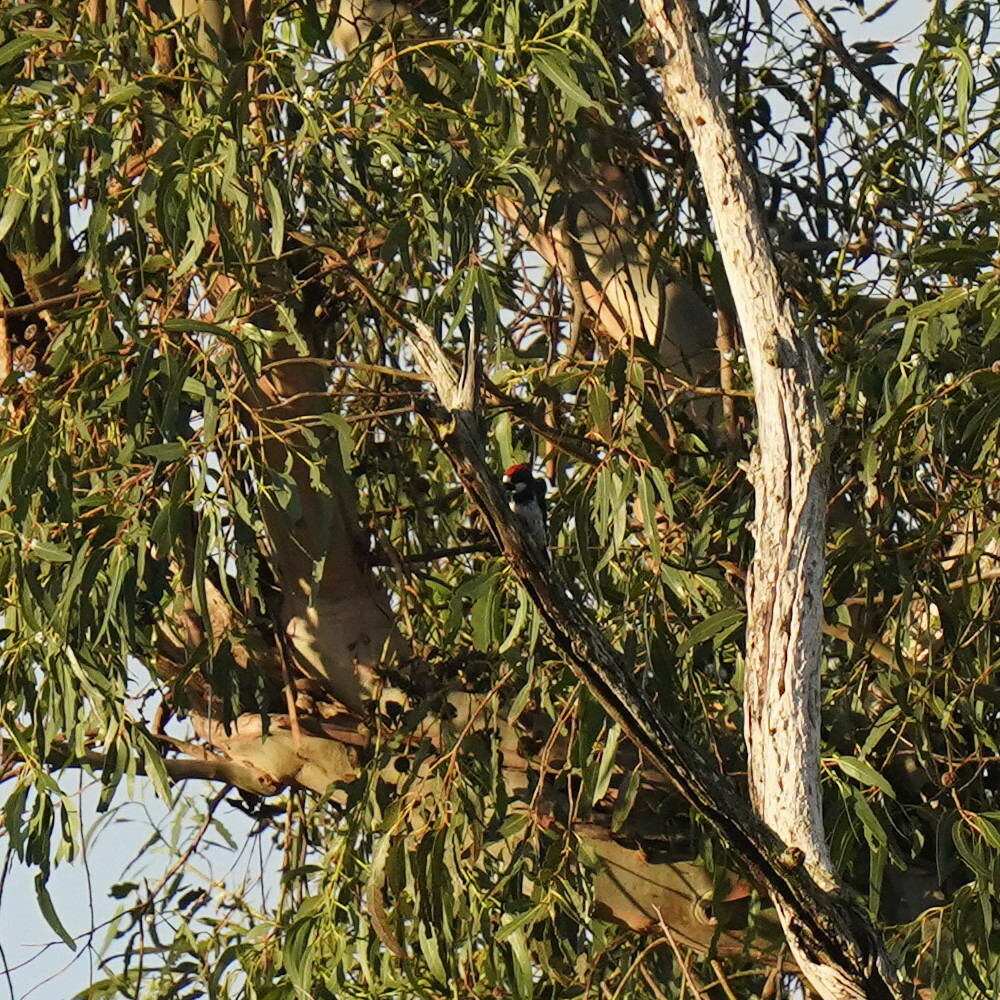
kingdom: Animalia
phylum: Chordata
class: Aves
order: Piciformes
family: Picidae
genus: Melanerpes
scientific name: Melanerpes formicivorus
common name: Acorn woodpecker
